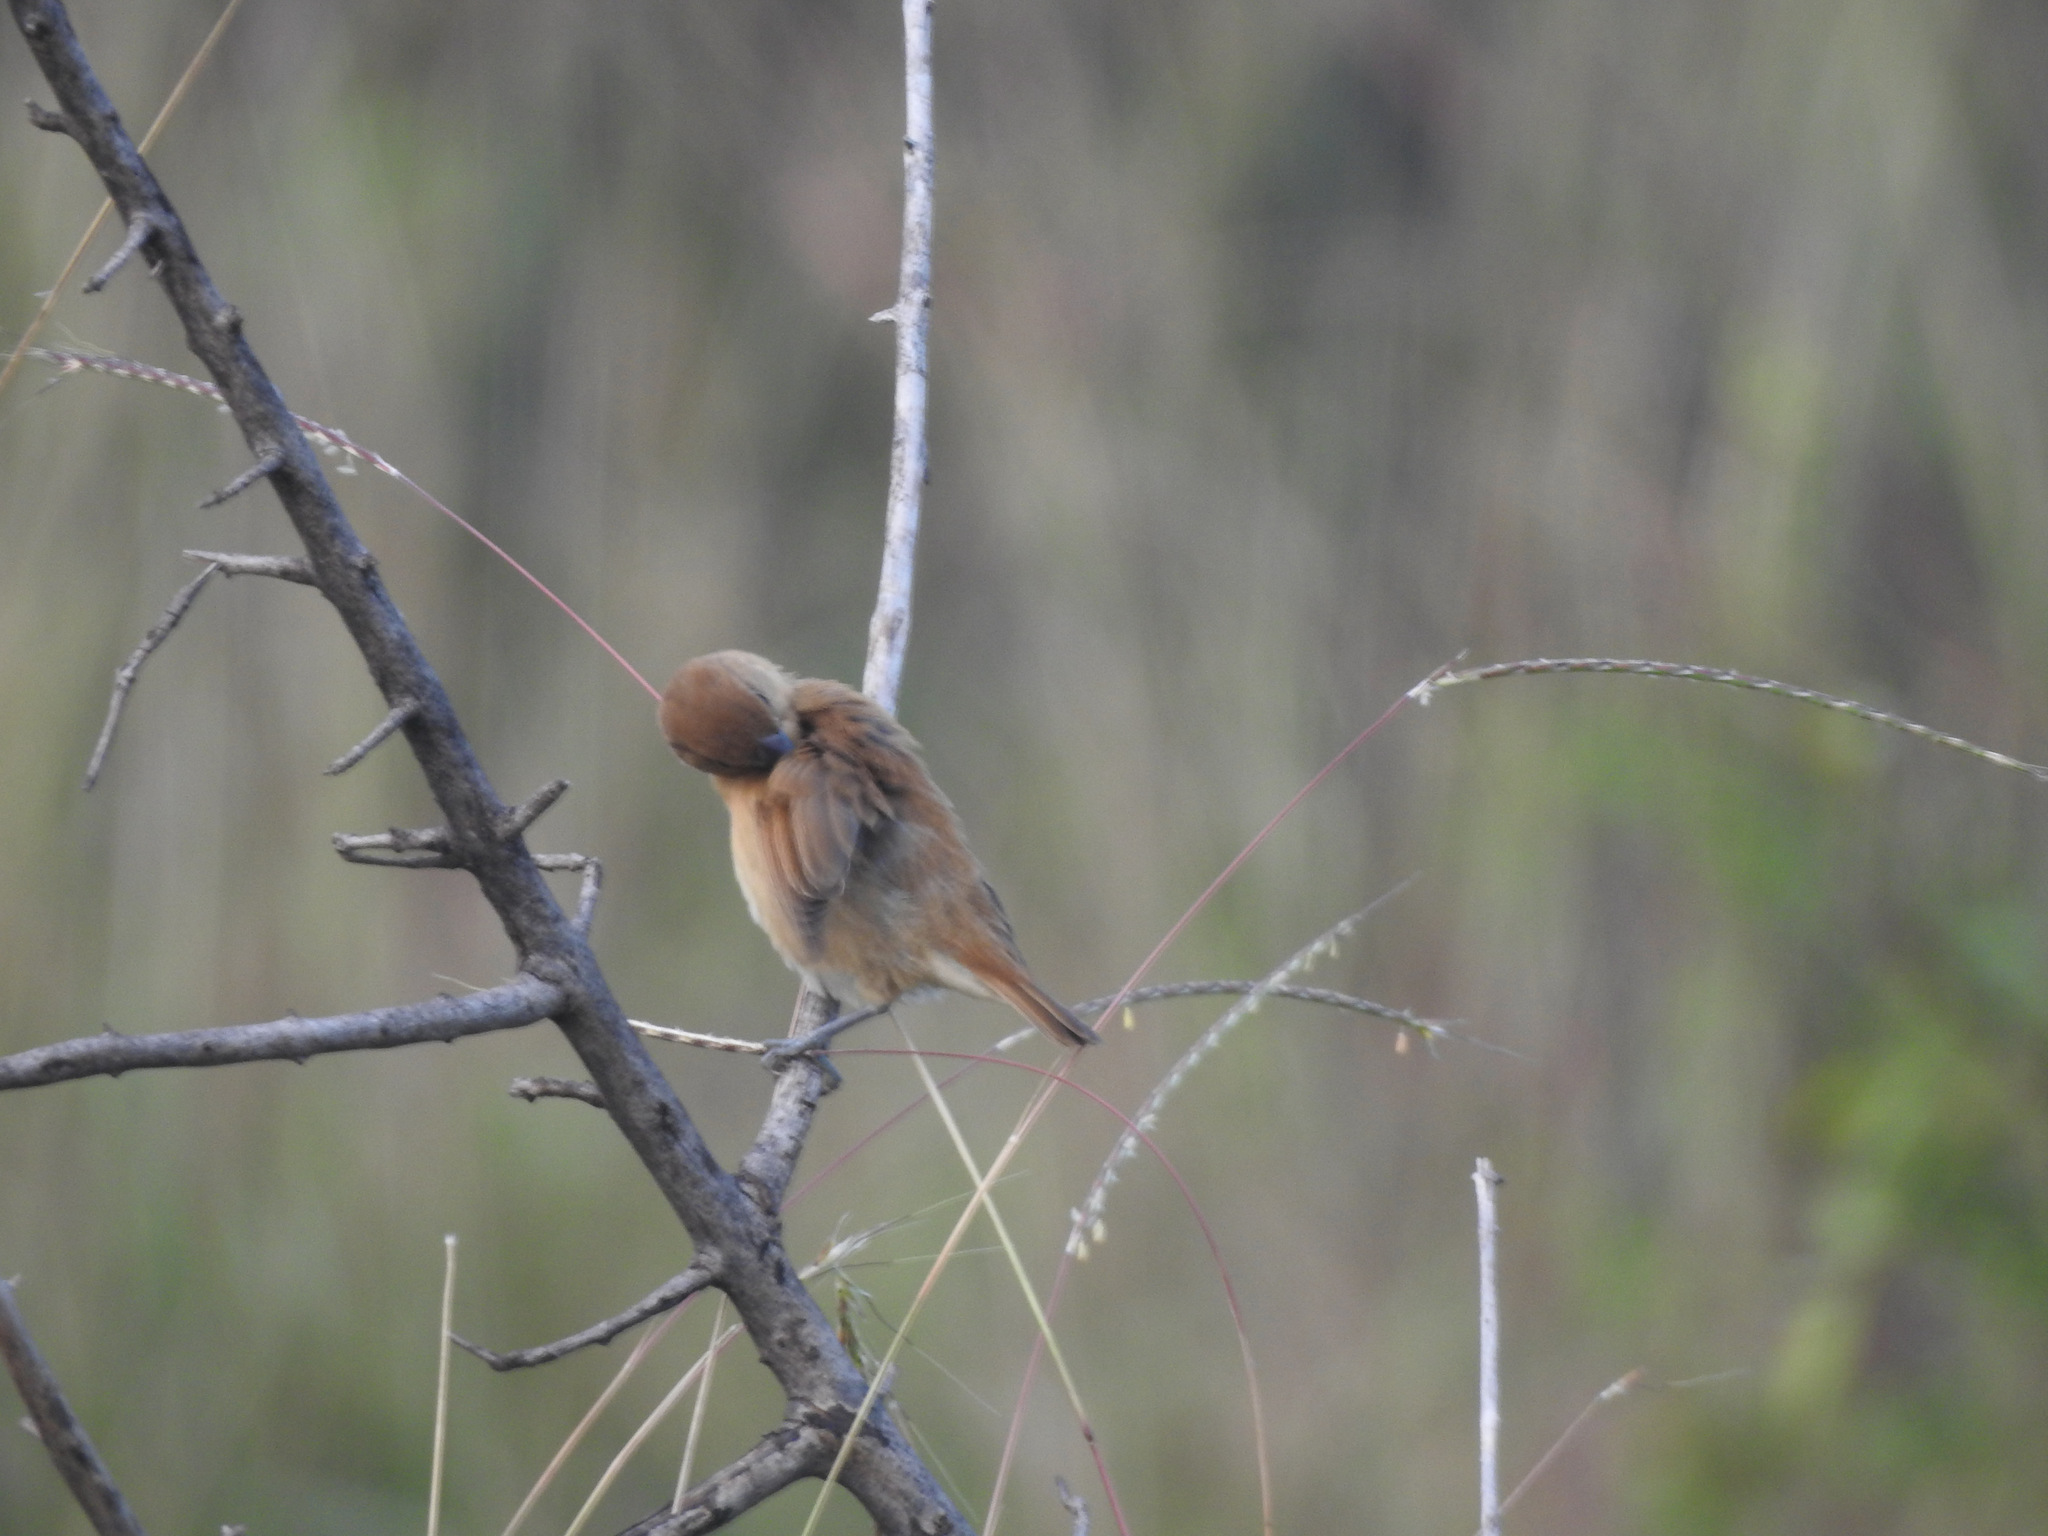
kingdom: Animalia
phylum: Chordata
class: Aves
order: Passeriformes
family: Estrildidae
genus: Lonchura
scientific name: Lonchura punctulata
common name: Scaly-breasted munia
